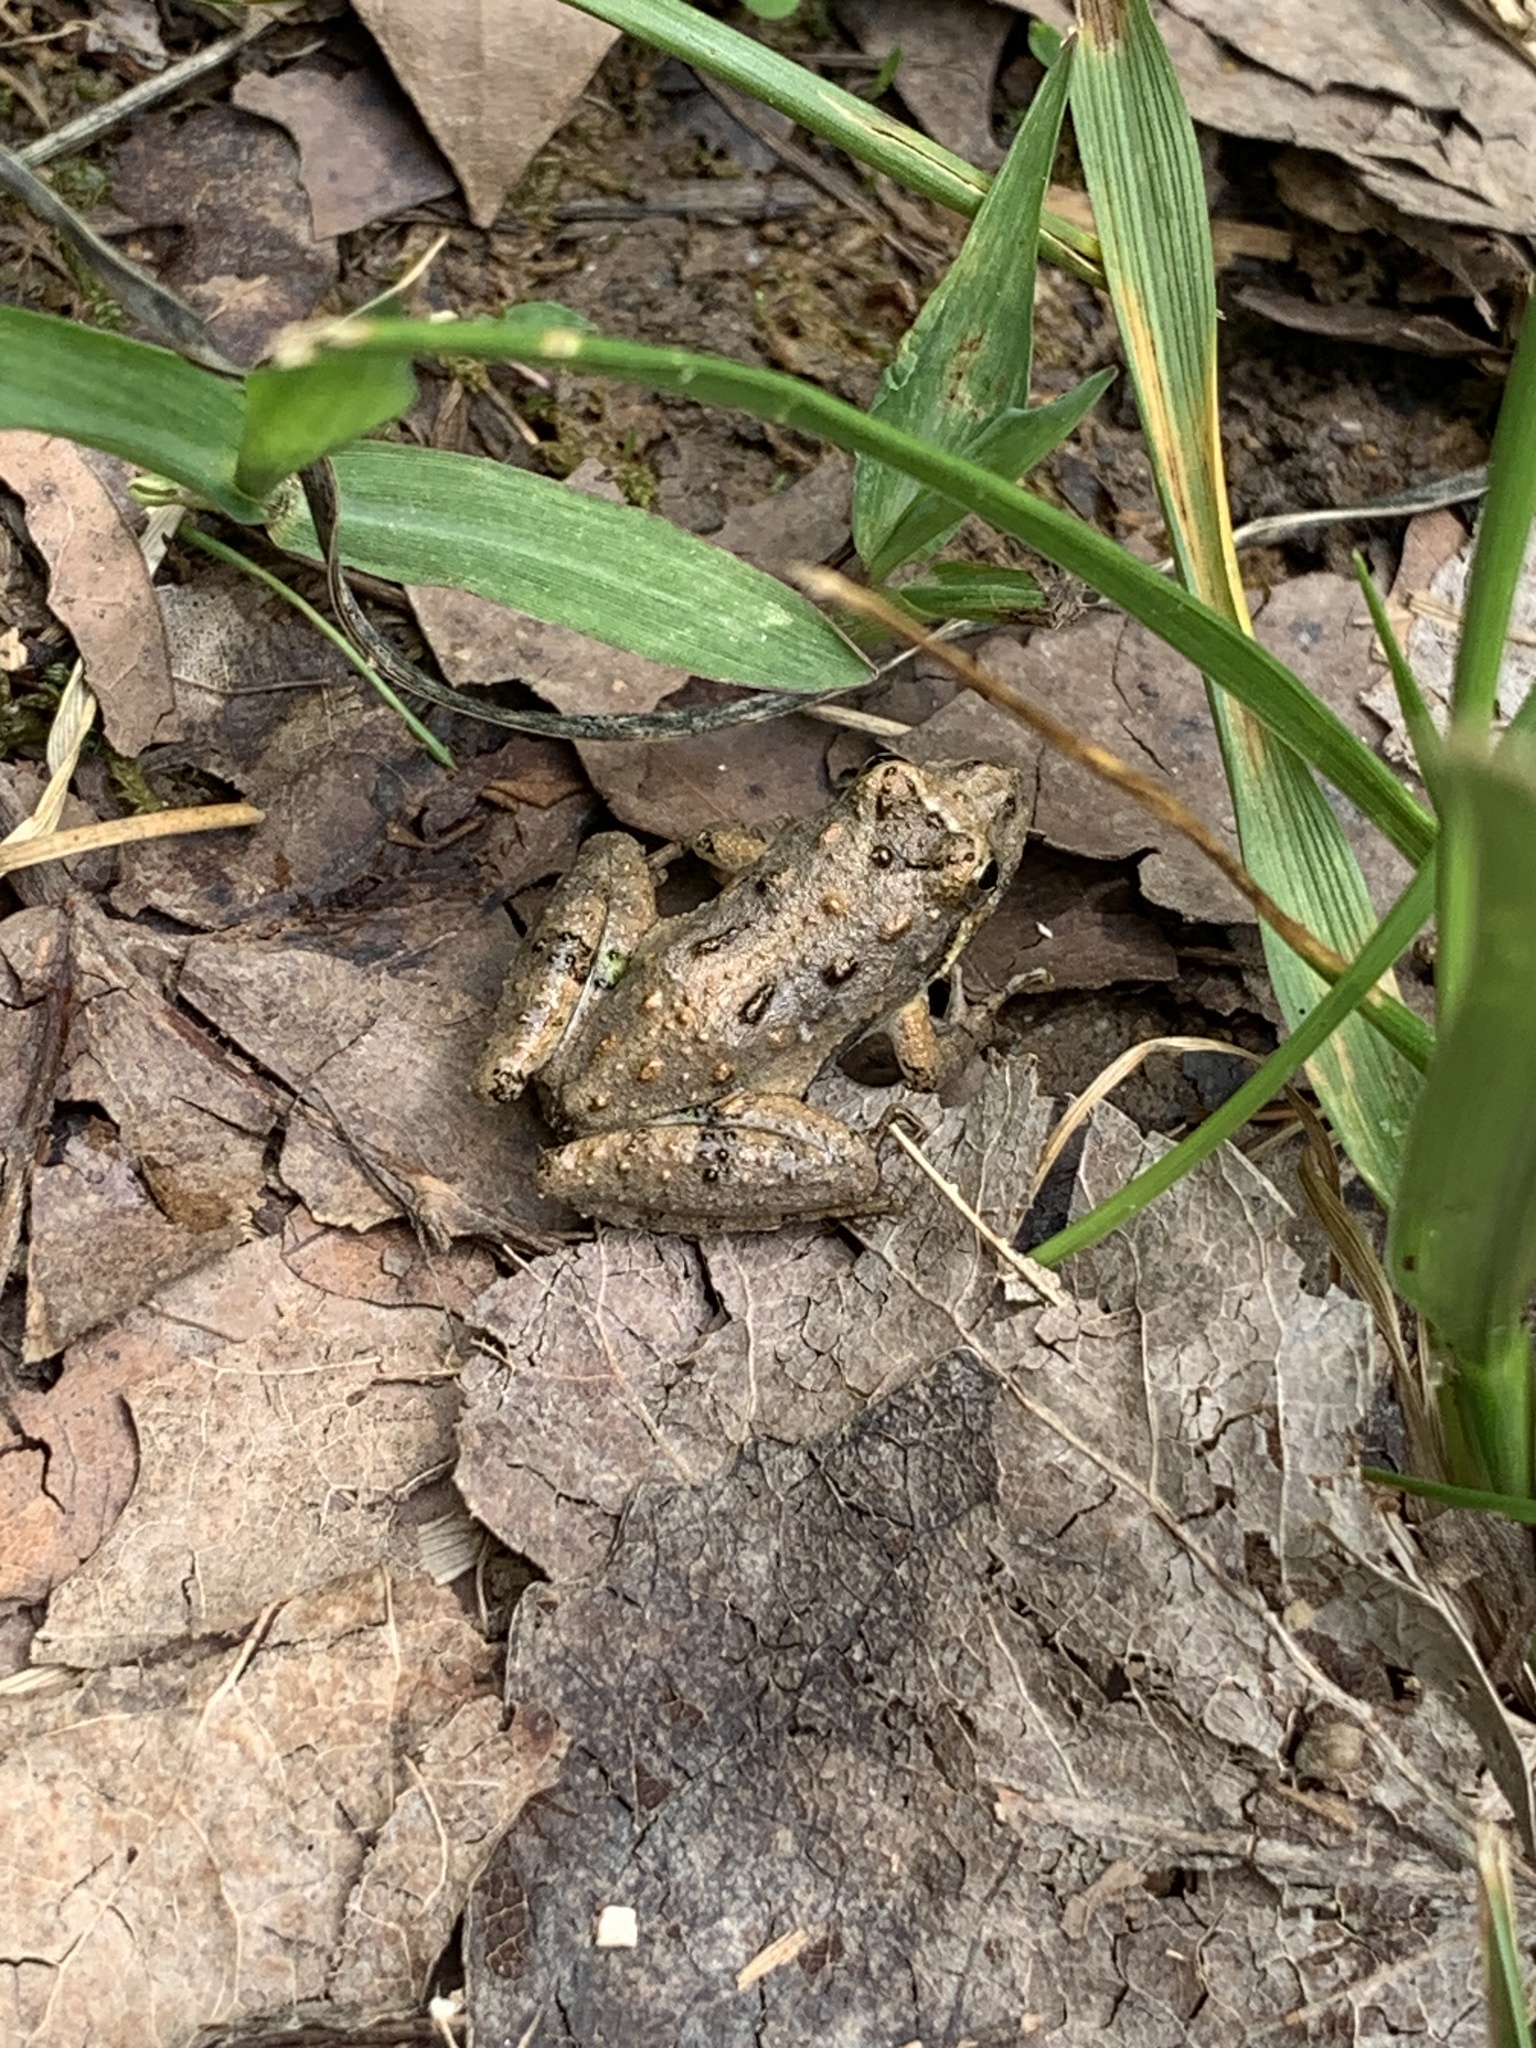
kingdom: Animalia
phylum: Chordata
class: Amphibia
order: Anura
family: Hylidae
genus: Acris
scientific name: Acris blanchardi
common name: Blanchard's cricket frog
